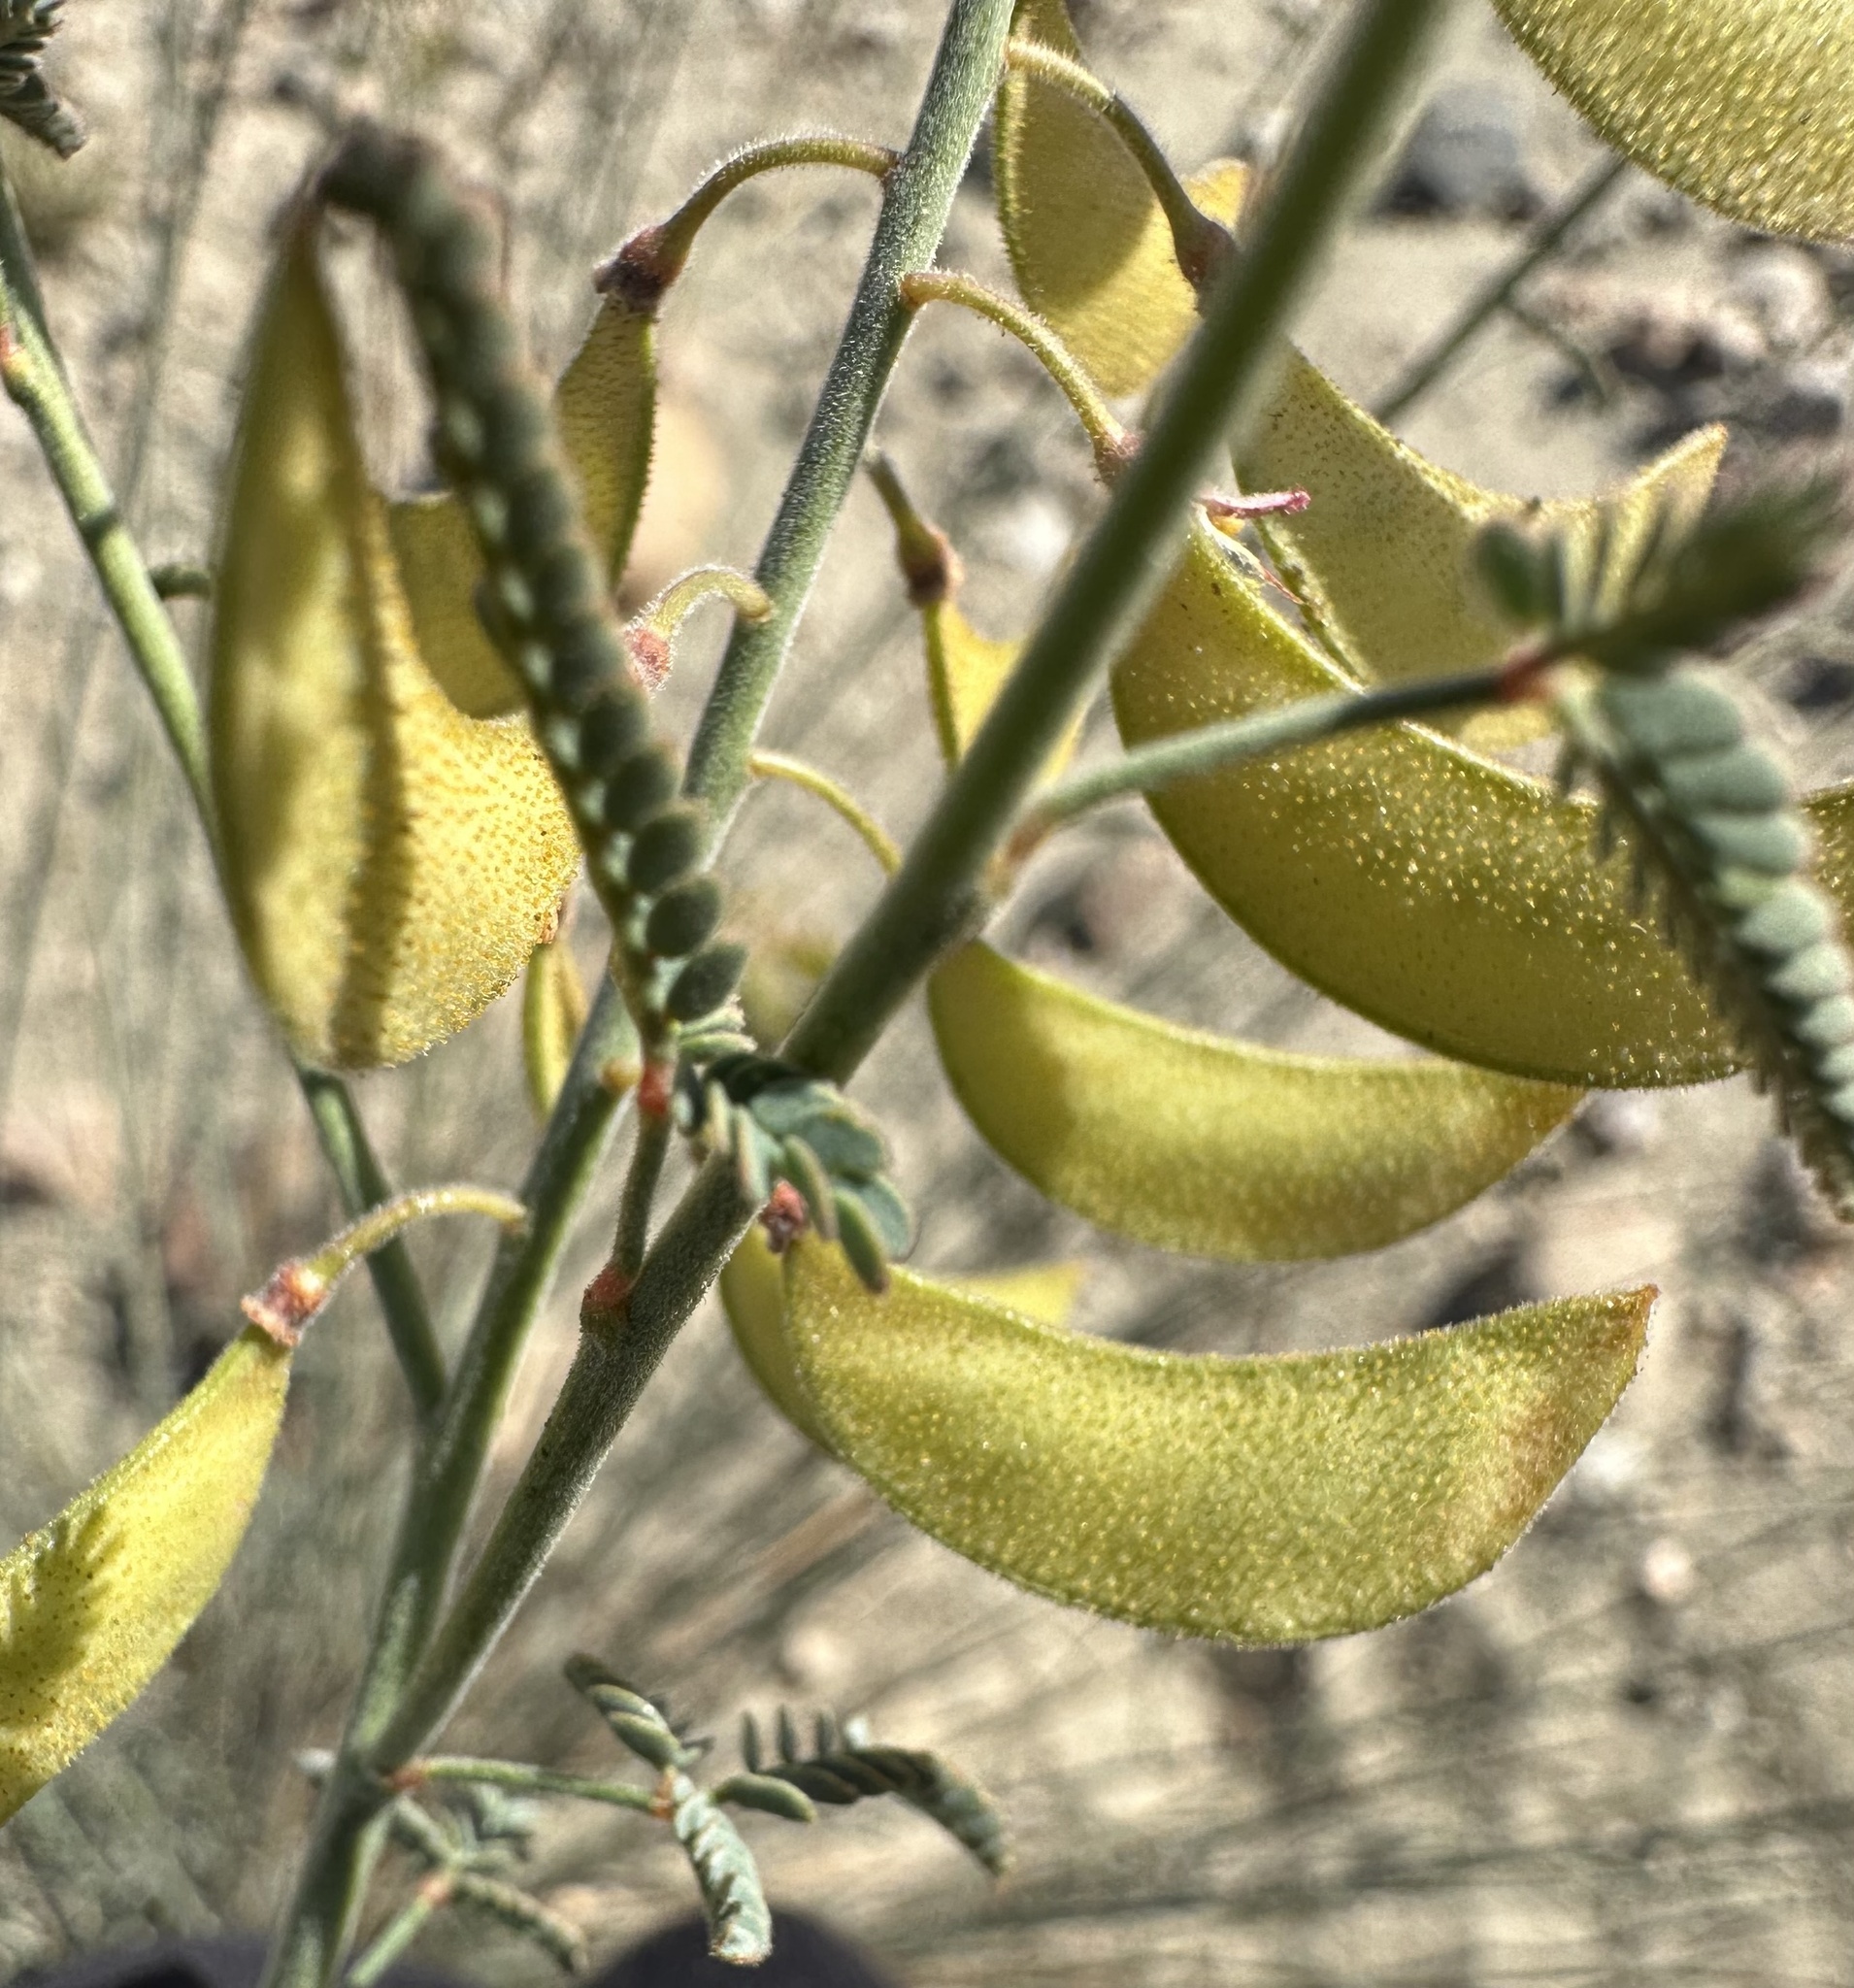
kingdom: Plantae
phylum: Tracheophyta
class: Magnoliopsida
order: Fabales
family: Fabaceae
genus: Hoffmannseggia
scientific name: Hoffmannseggia microphylla
